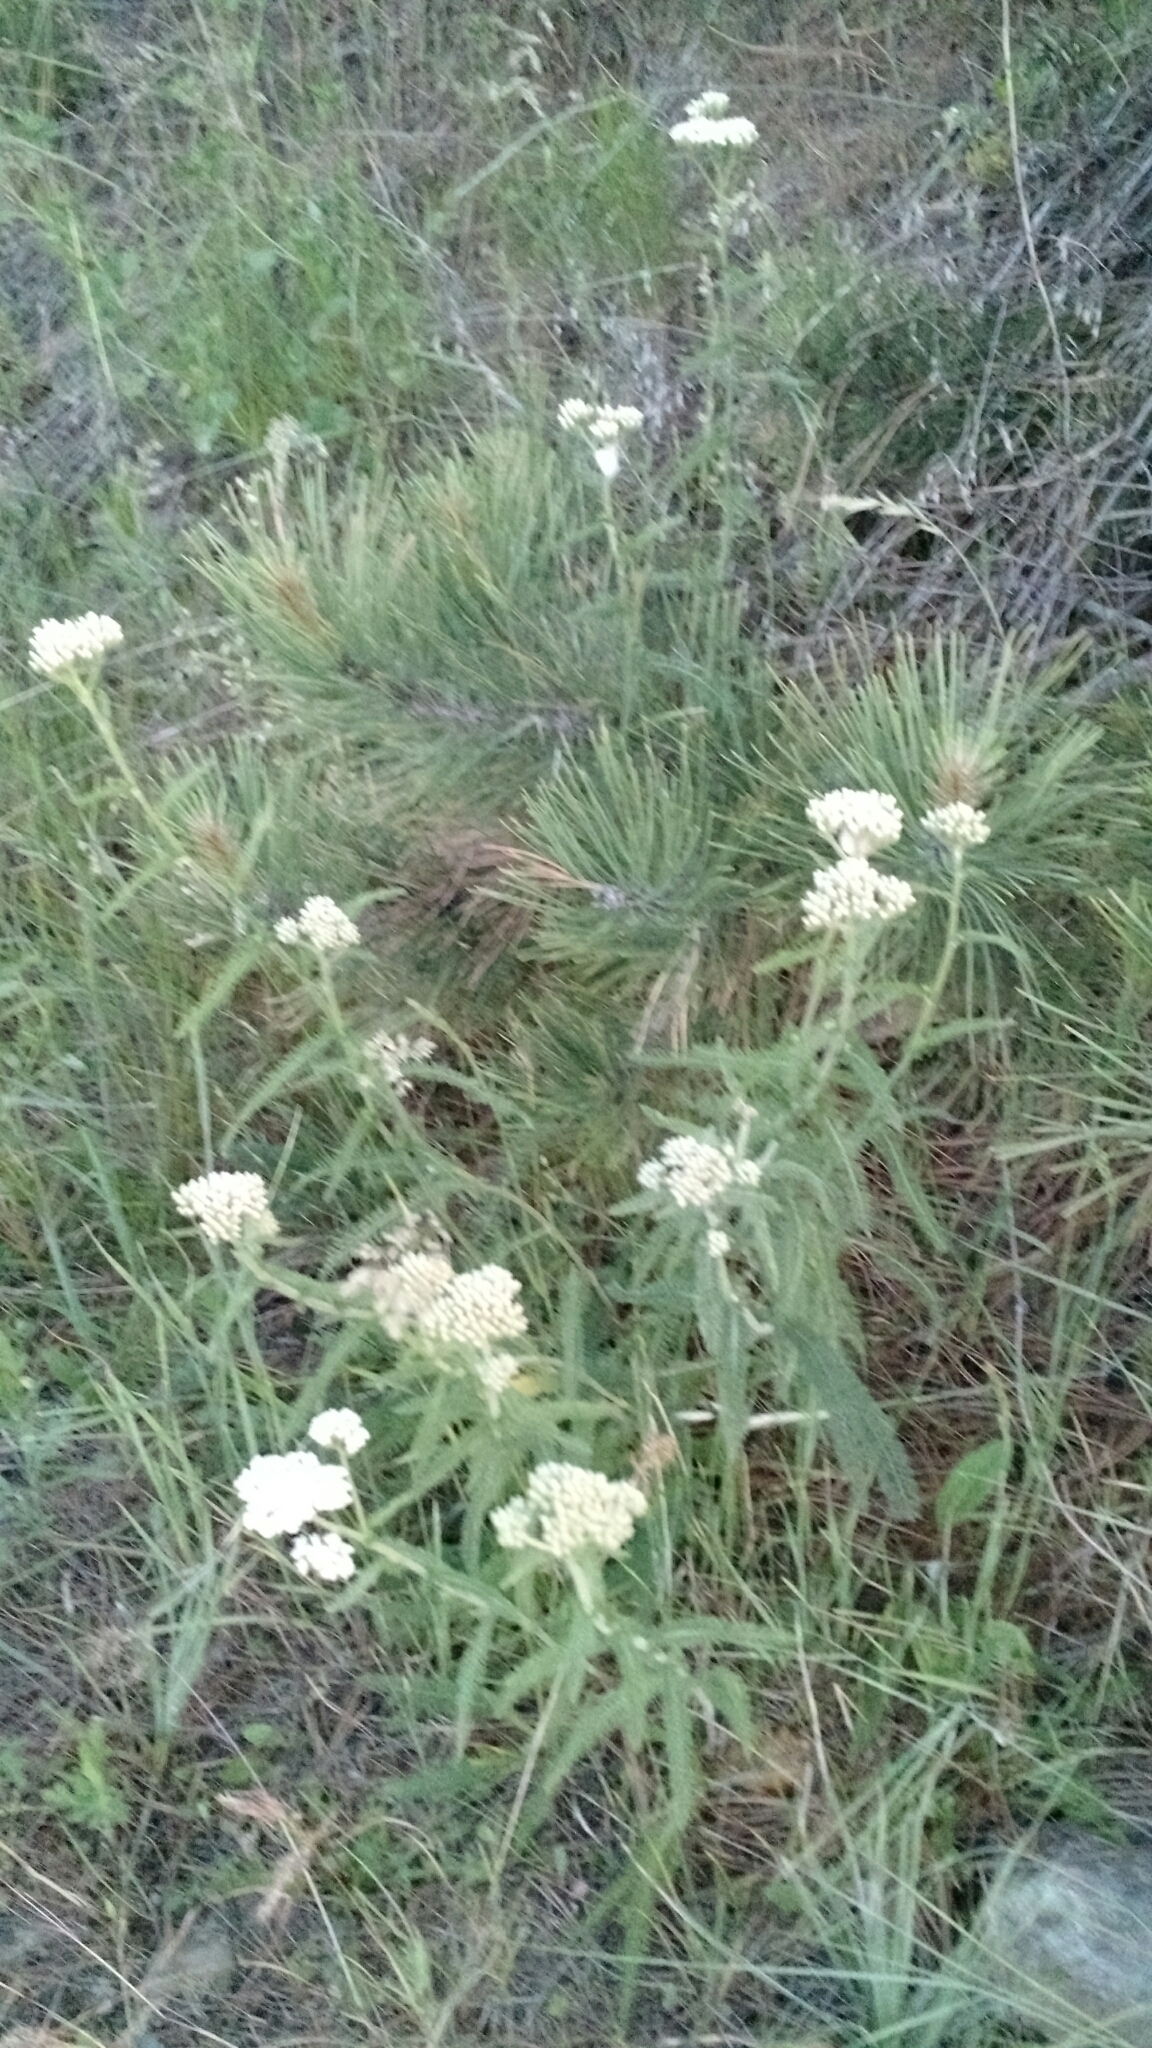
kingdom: Plantae
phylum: Tracheophyta
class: Magnoliopsida
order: Asterales
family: Asteraceae
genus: Achillea
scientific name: Achillea millefolium
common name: Yarrow
